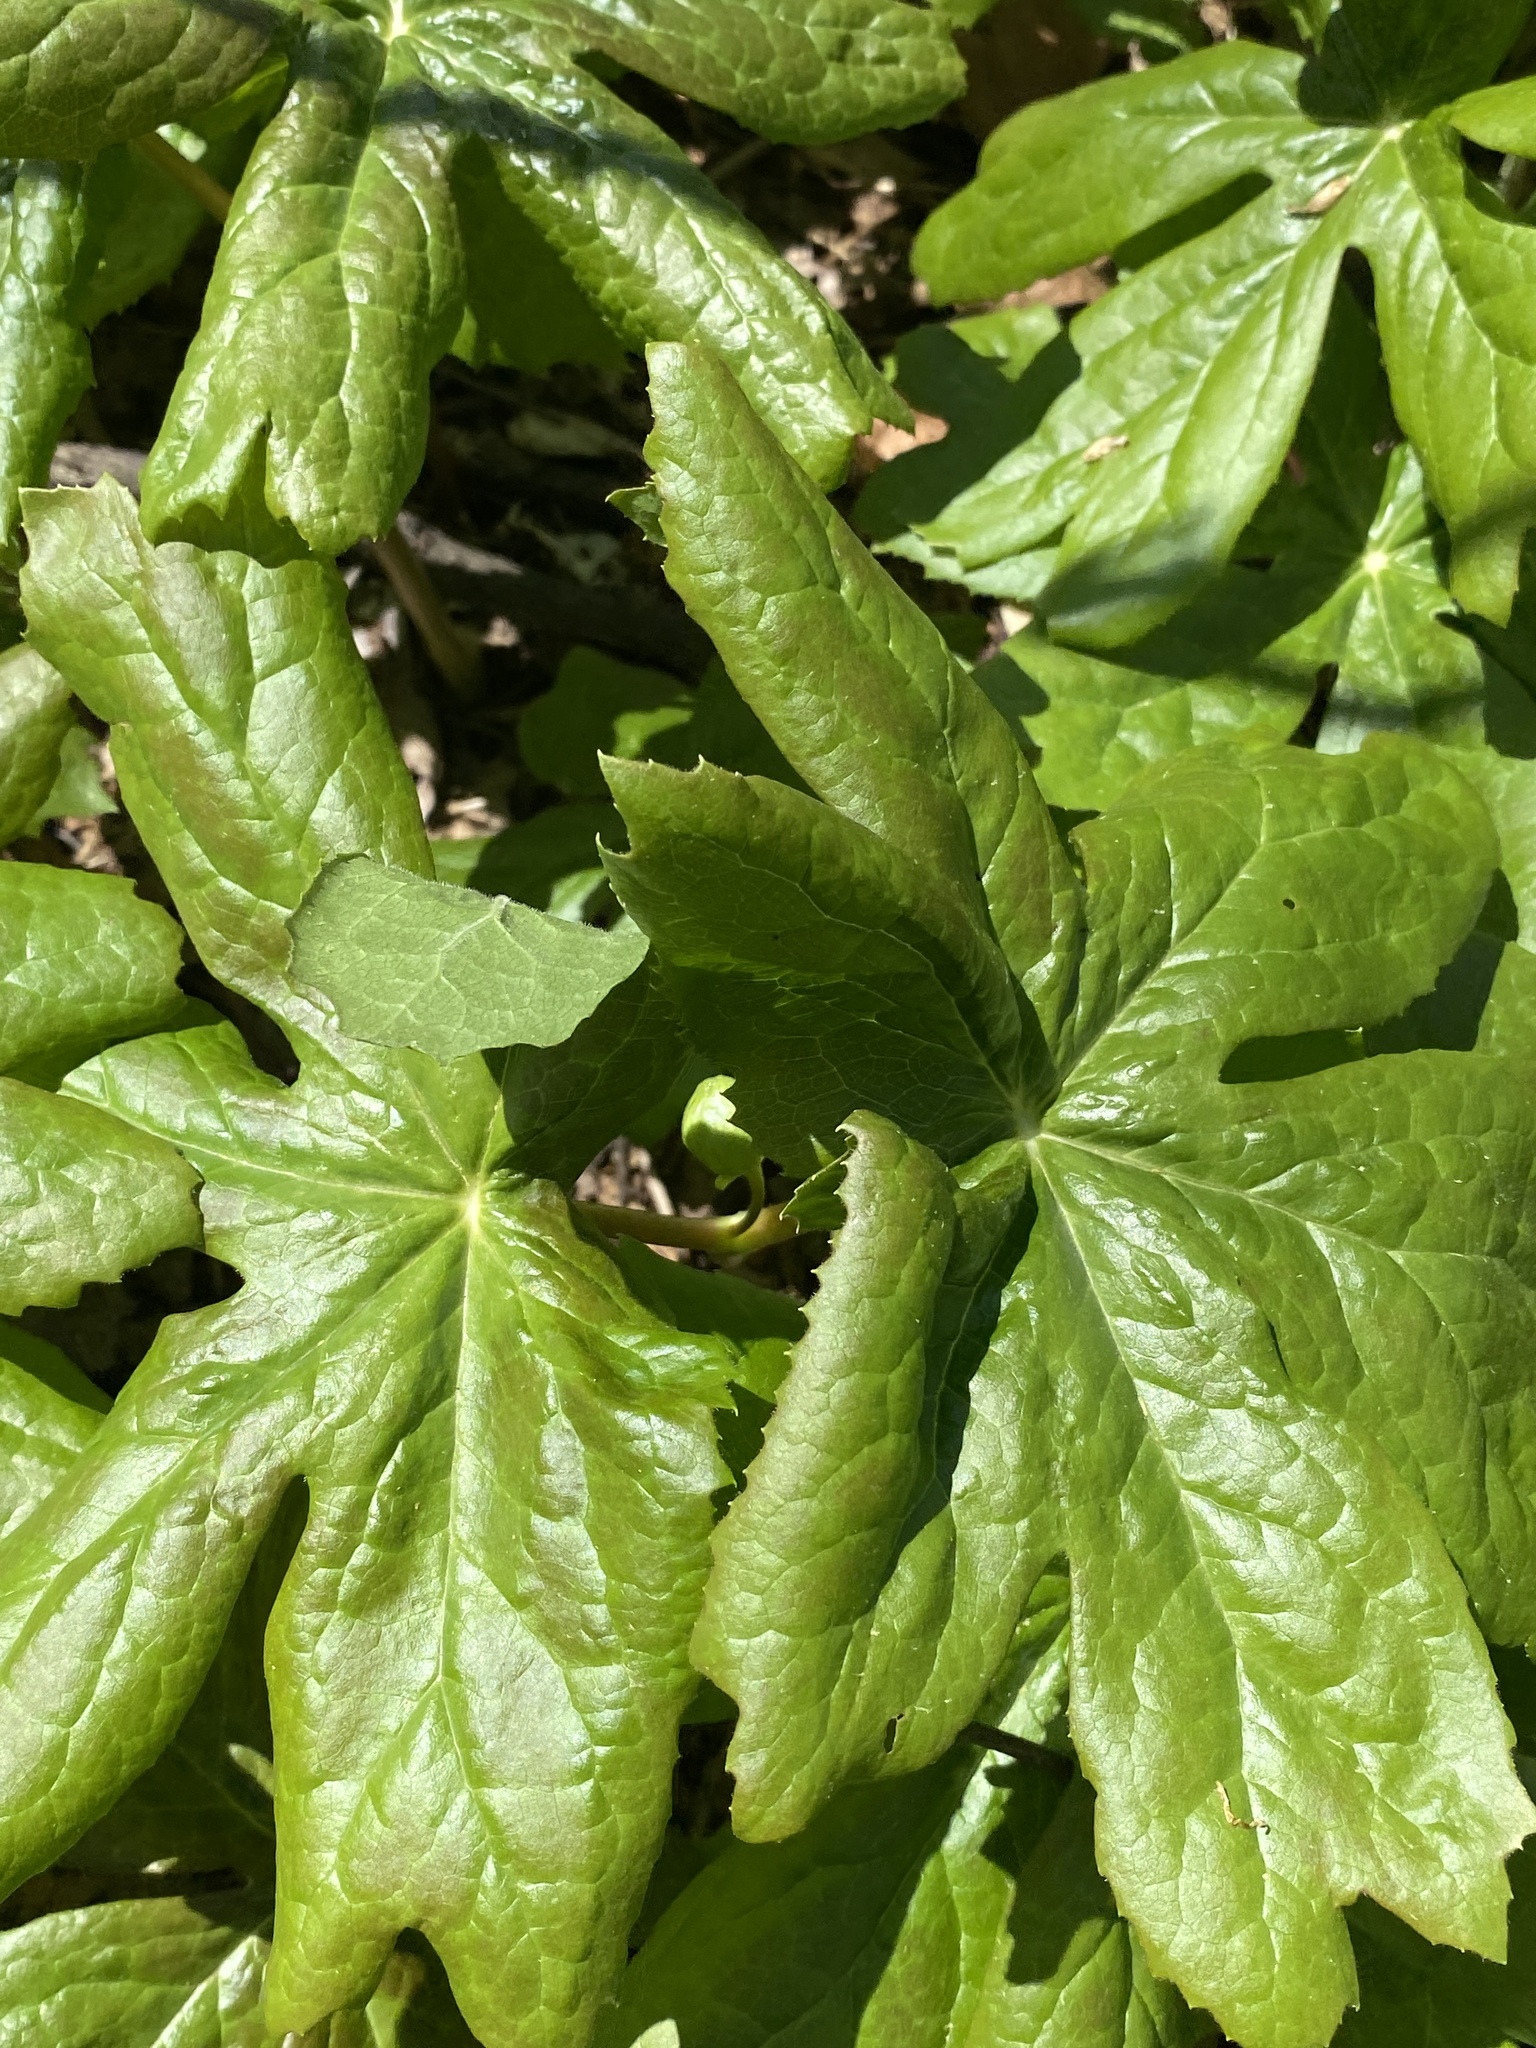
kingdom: Plantae
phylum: Tracheophyta
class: Magnoliopsida
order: Ranunculales
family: Berberidaceae
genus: Podophyllum
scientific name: Podophyllum peltatum
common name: Wild mandrake
